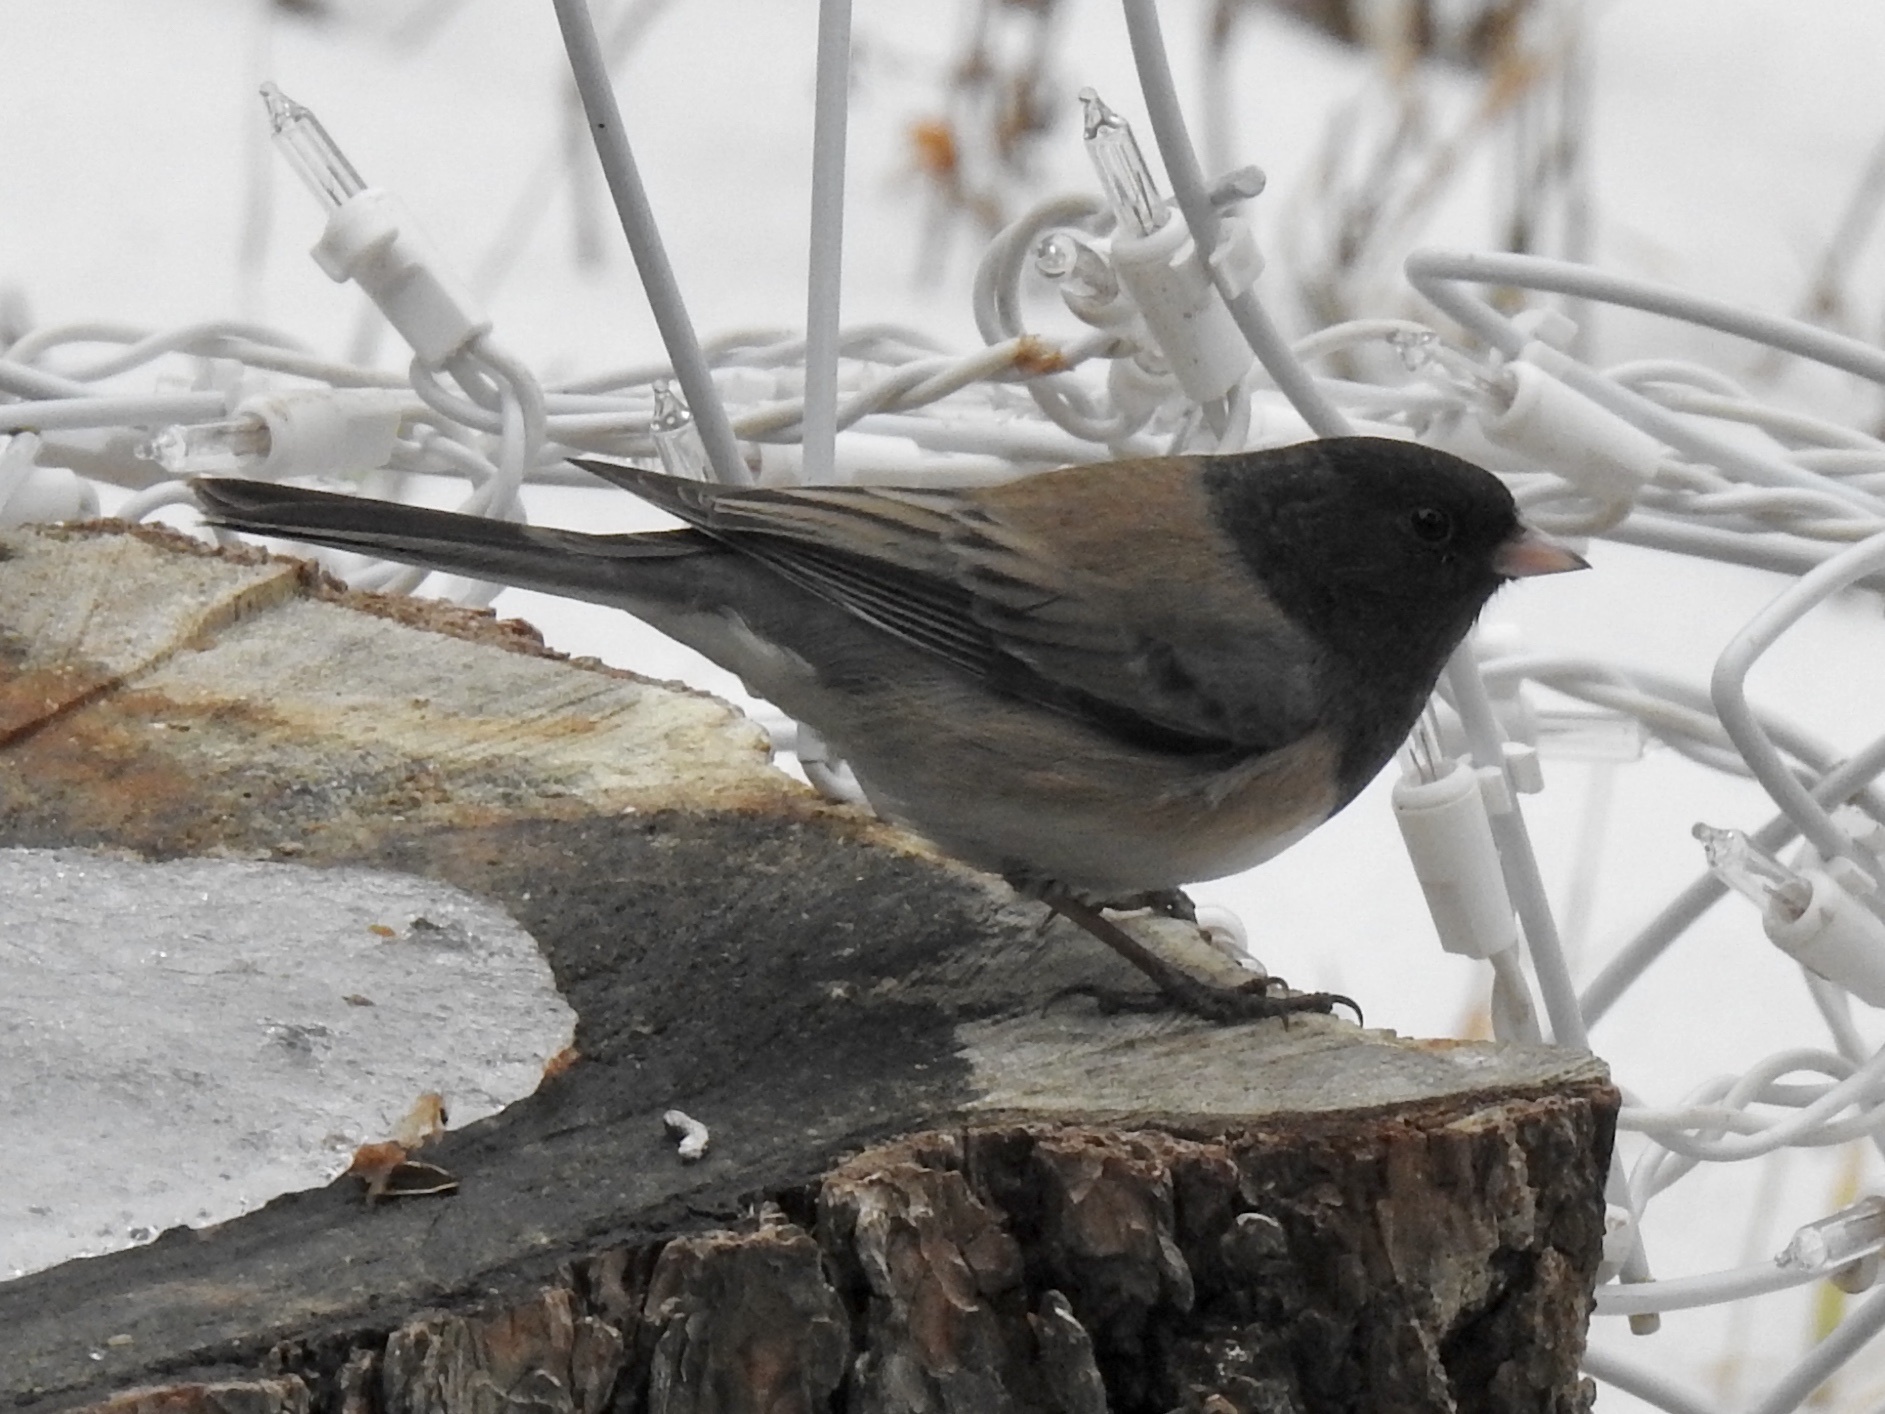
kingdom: Animalia
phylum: Chordata
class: Aves
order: Passeriformes
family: Passerellidae
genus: Junco
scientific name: Junco hyemalis
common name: Dark-eyed junco
